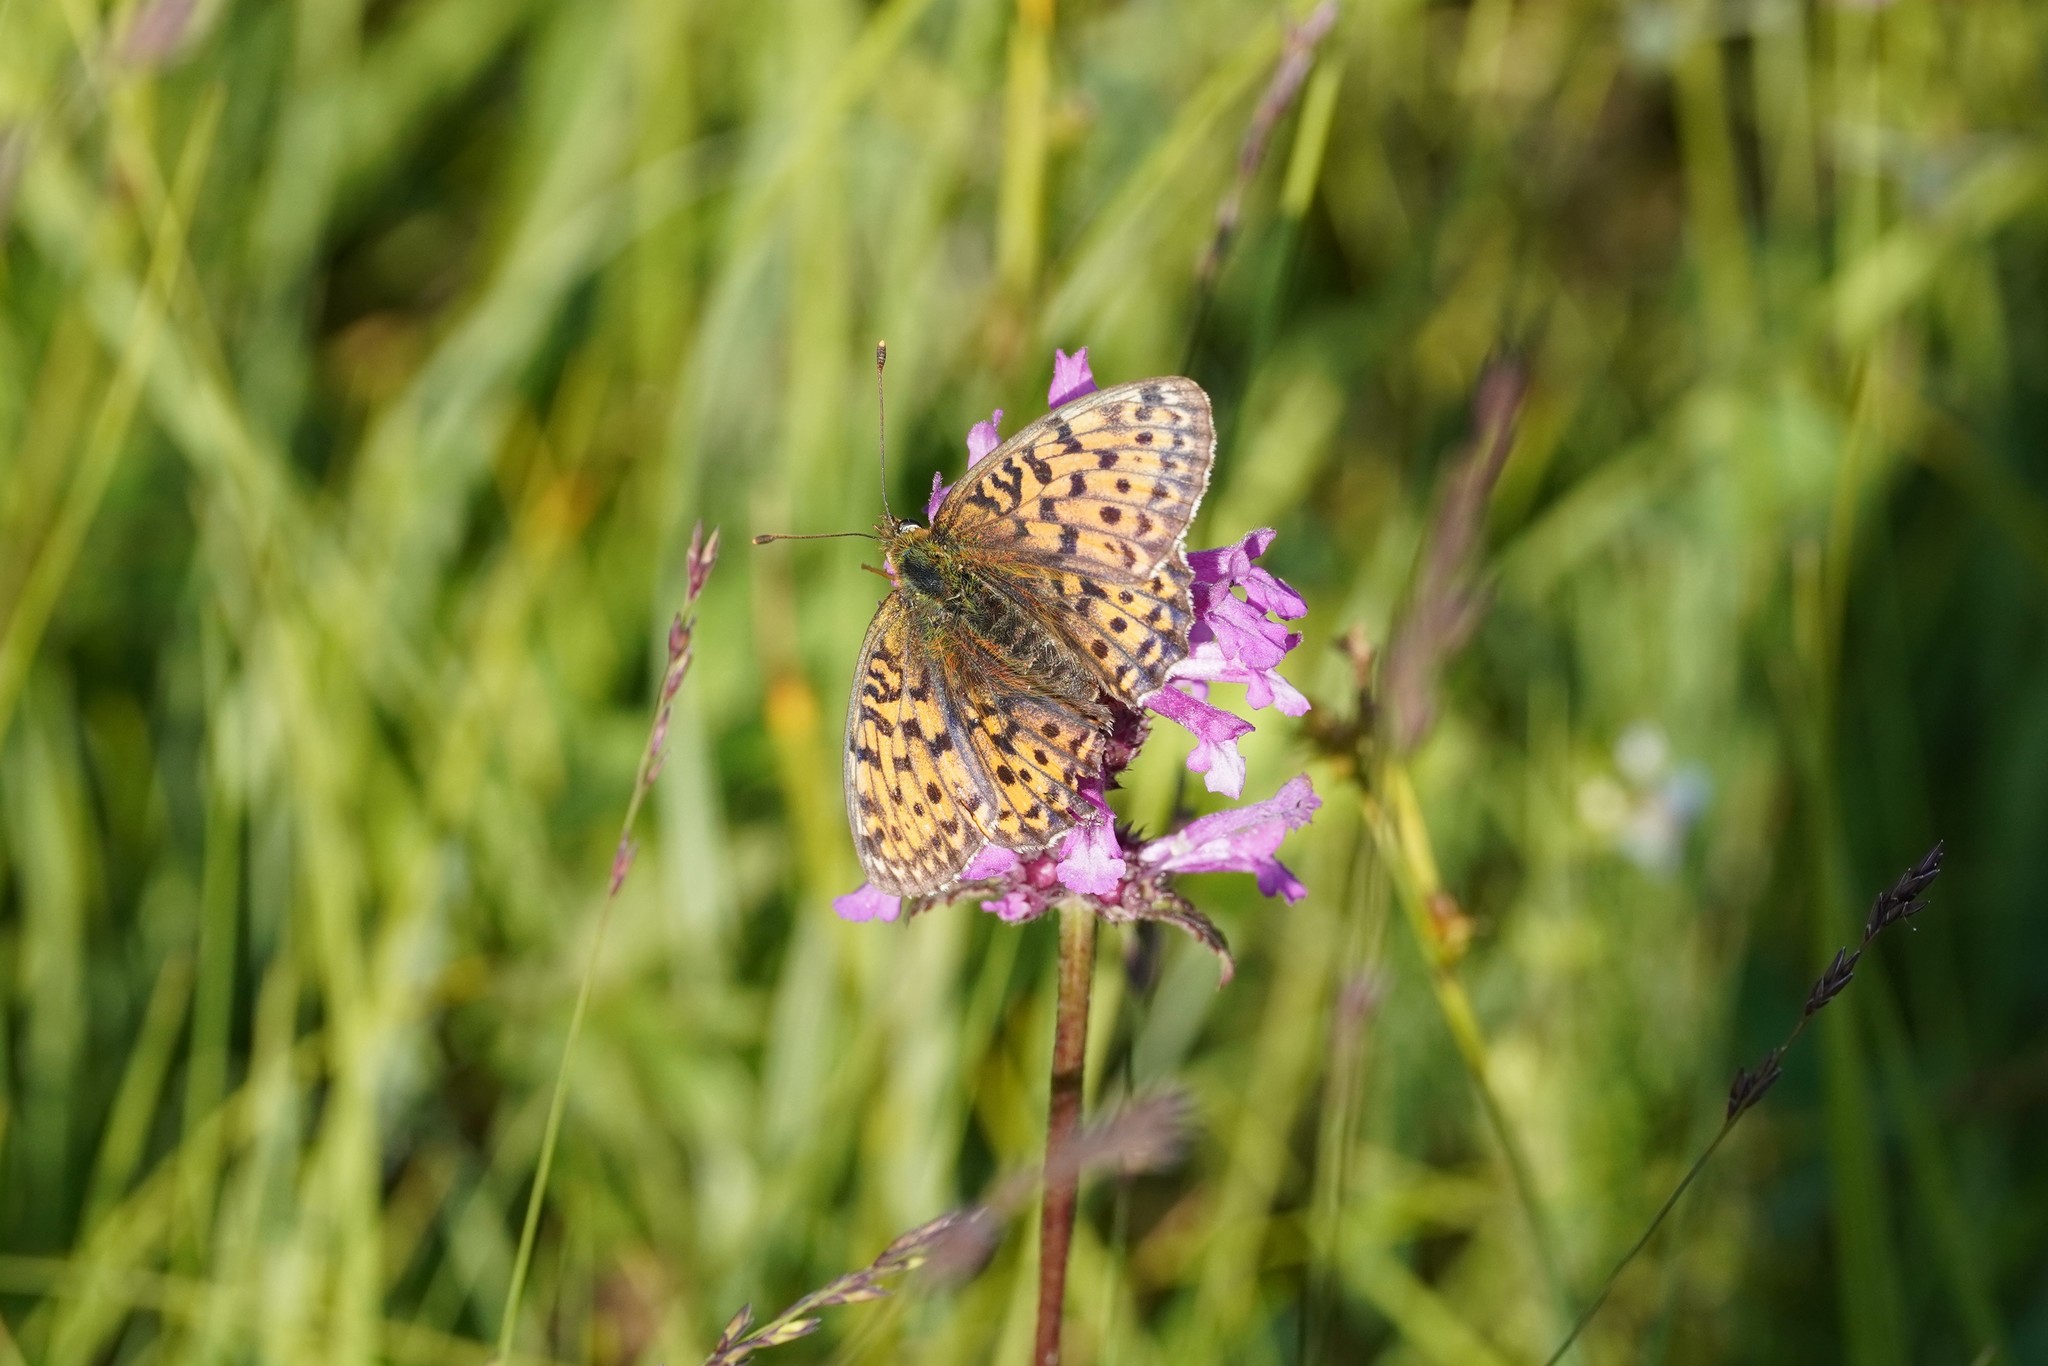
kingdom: Animalia
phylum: Arthropoda
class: Insecta
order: Lepidoptera
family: Nymphalidae
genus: Brenthis
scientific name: Brenthis ino
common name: Lesser marbled fritillary
